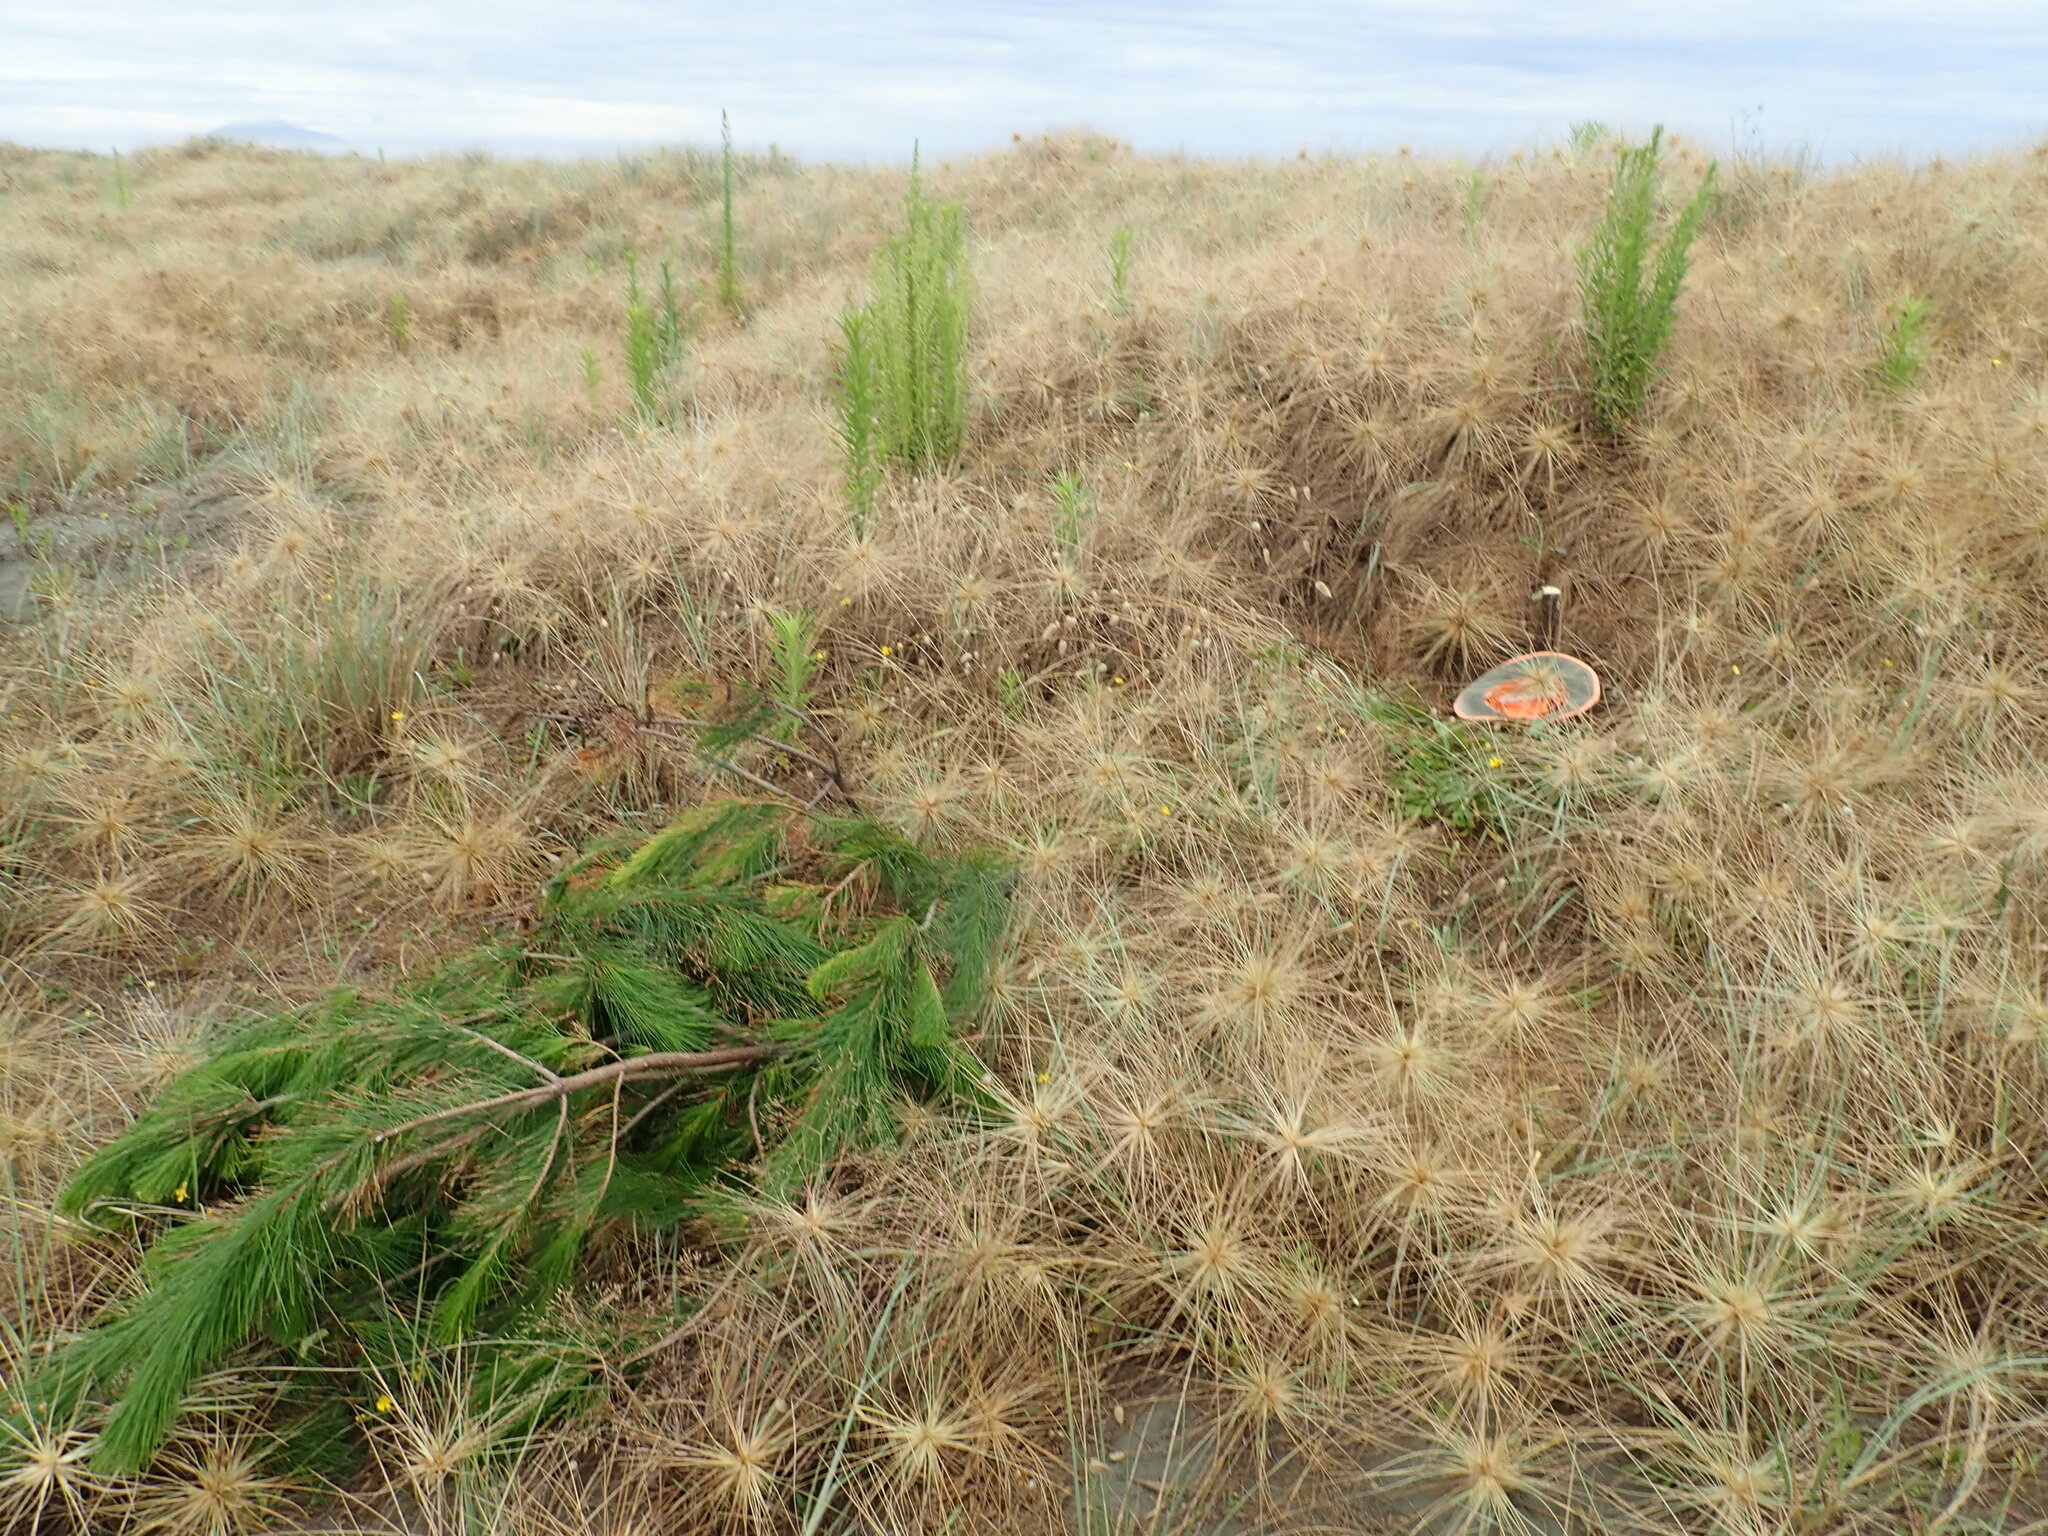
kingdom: Plantae
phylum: Tracheophyta
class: Pinopsida
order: Pinales
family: Pinaceae
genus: Pinus
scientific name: Pinus radiata
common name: Monterey pine
